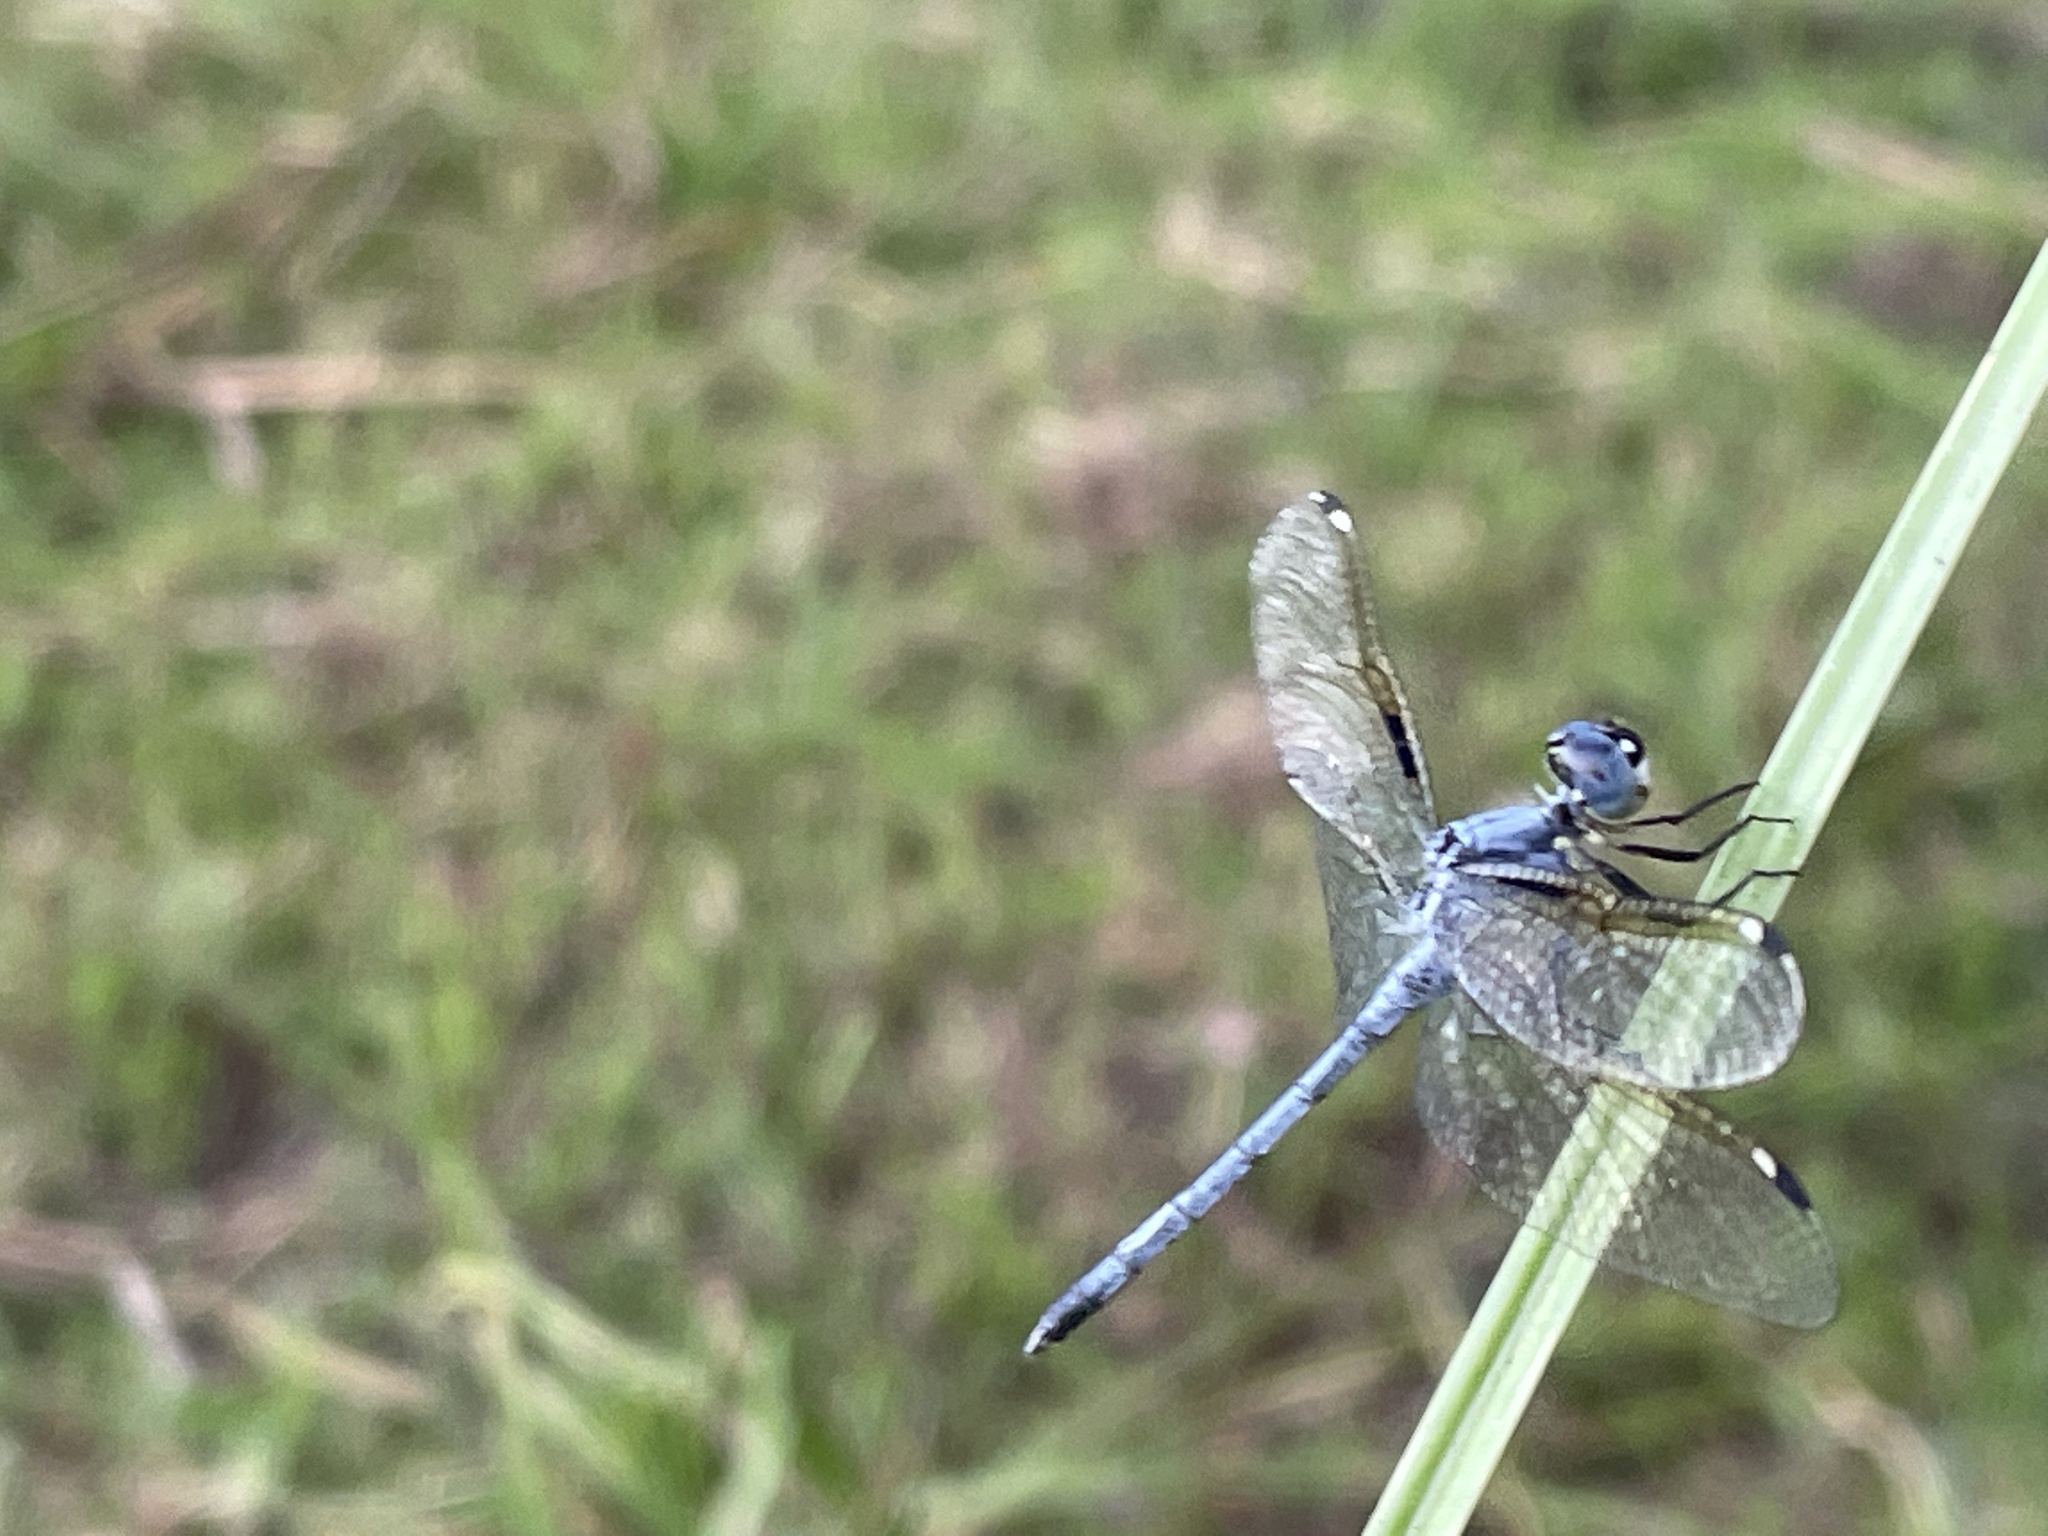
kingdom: Animalia
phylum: Arthropoda
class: Insecta
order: Odonata
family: Libellulidae
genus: Hemistigma
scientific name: Hemistigma albipunctum
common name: African pied-spot
